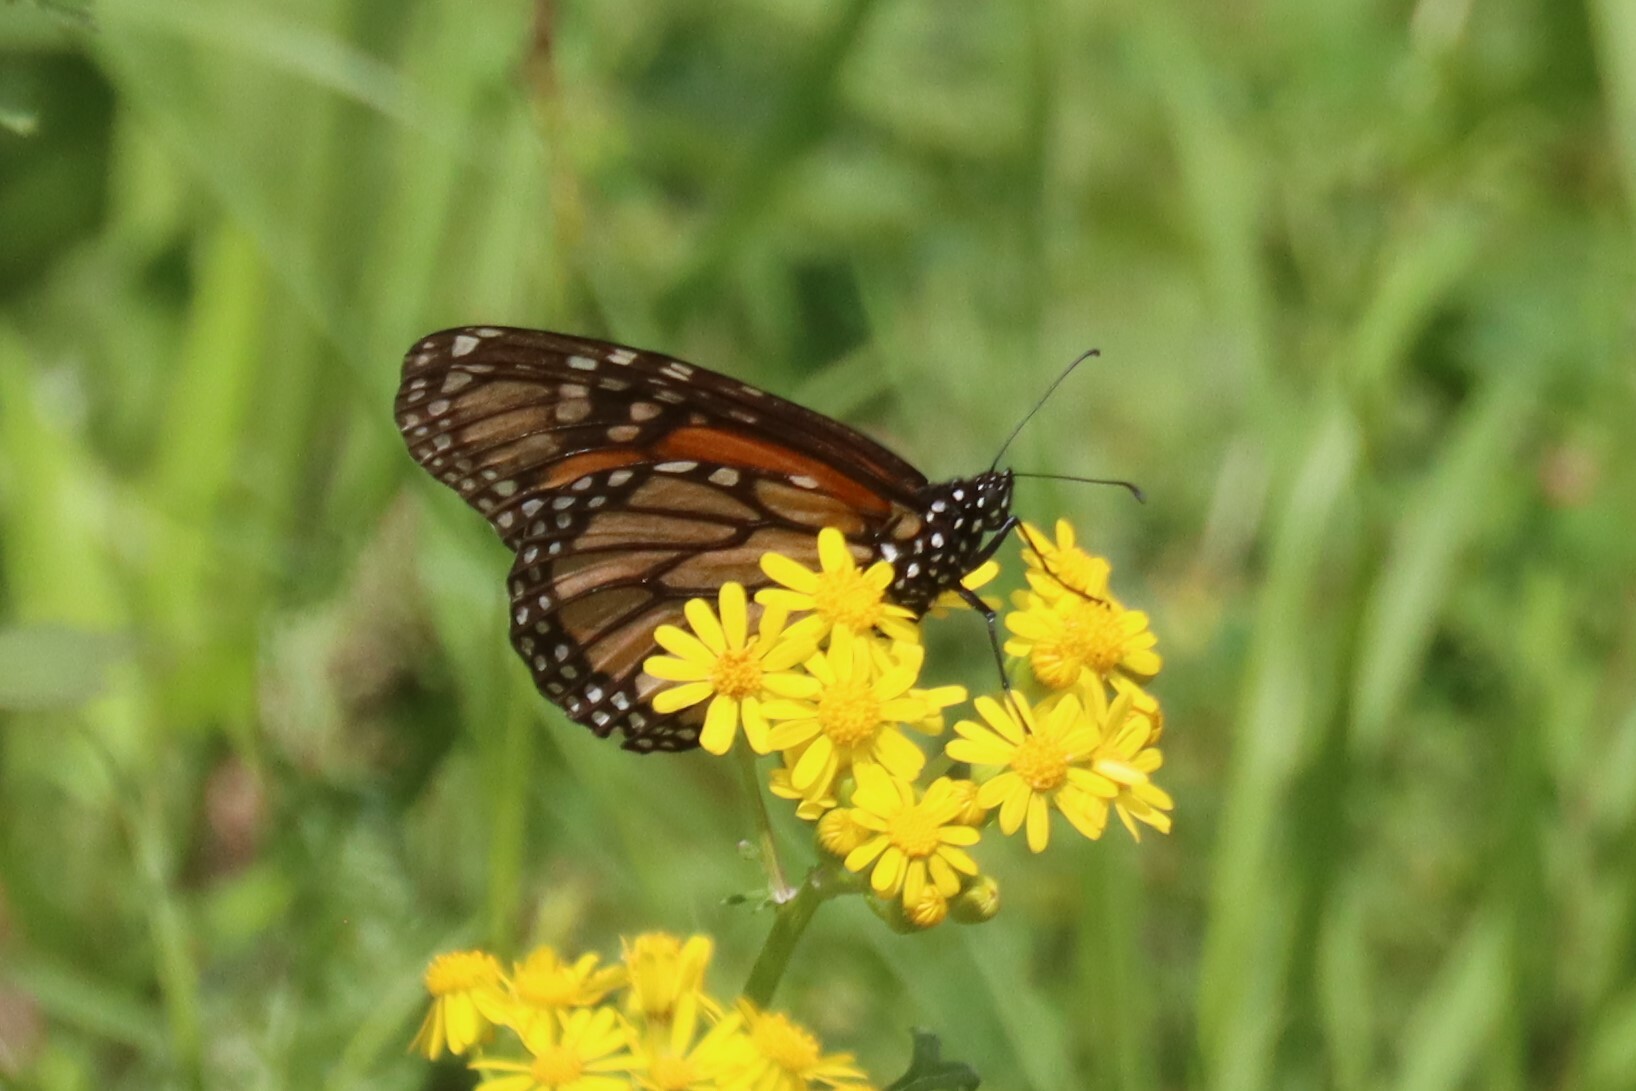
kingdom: Animalia
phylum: Arthropoda
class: Insecta
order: Lepidoptera
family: Nymphalidae
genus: Danaus
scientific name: Danaus plexippus
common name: Monarch
